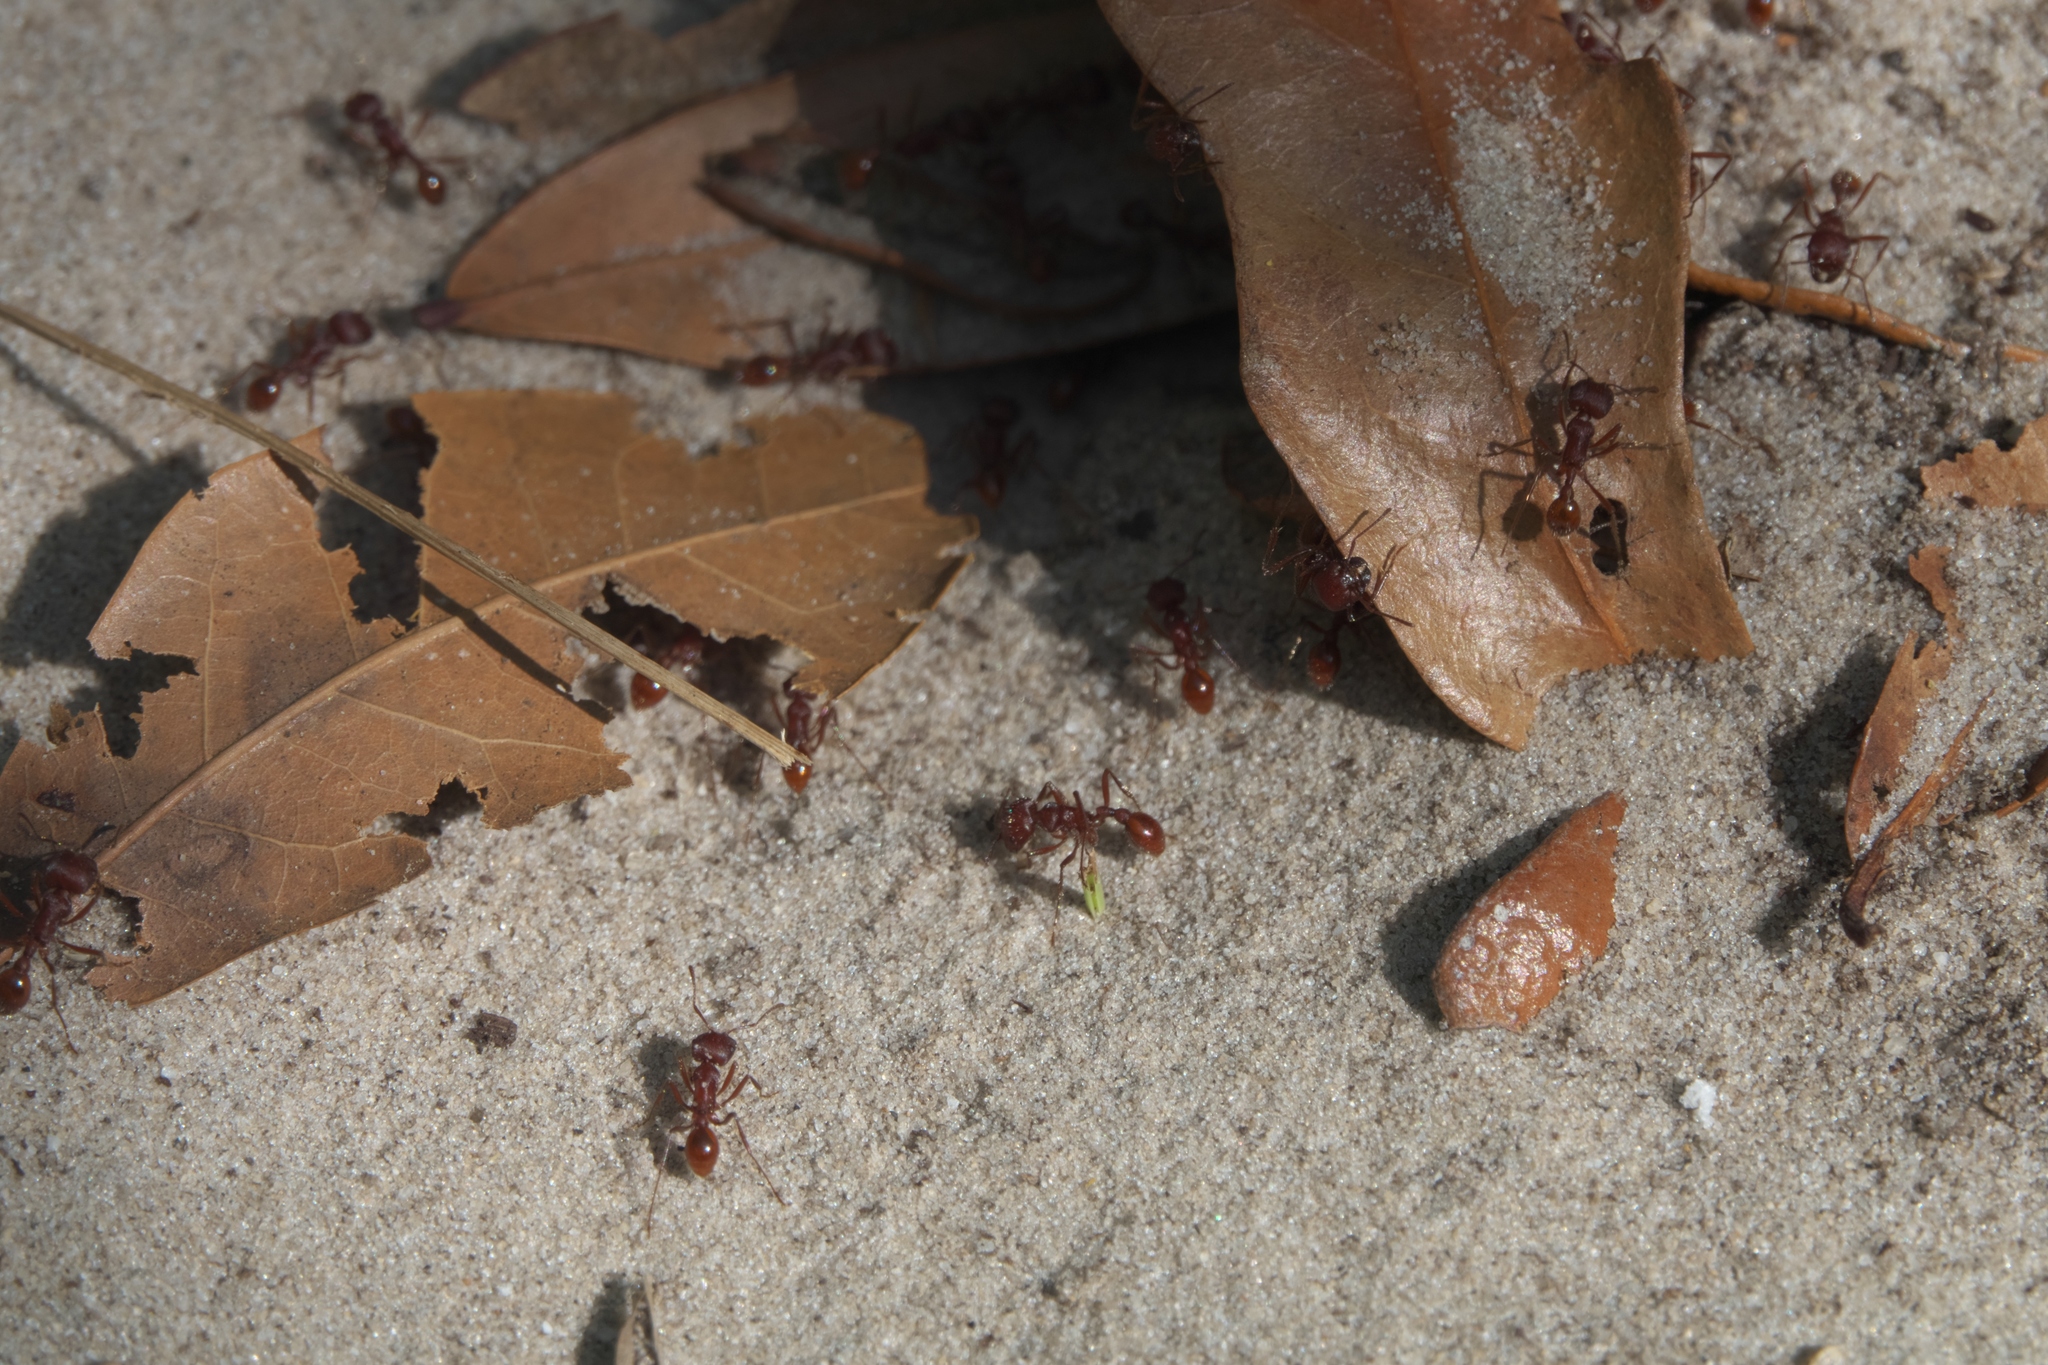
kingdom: Animalia
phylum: Arthropoda
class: Insecta
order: Hymenoptera
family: Formicidae
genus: Pogonomyrmex
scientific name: Pogonomyrmex badius
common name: Florida harvester ant
